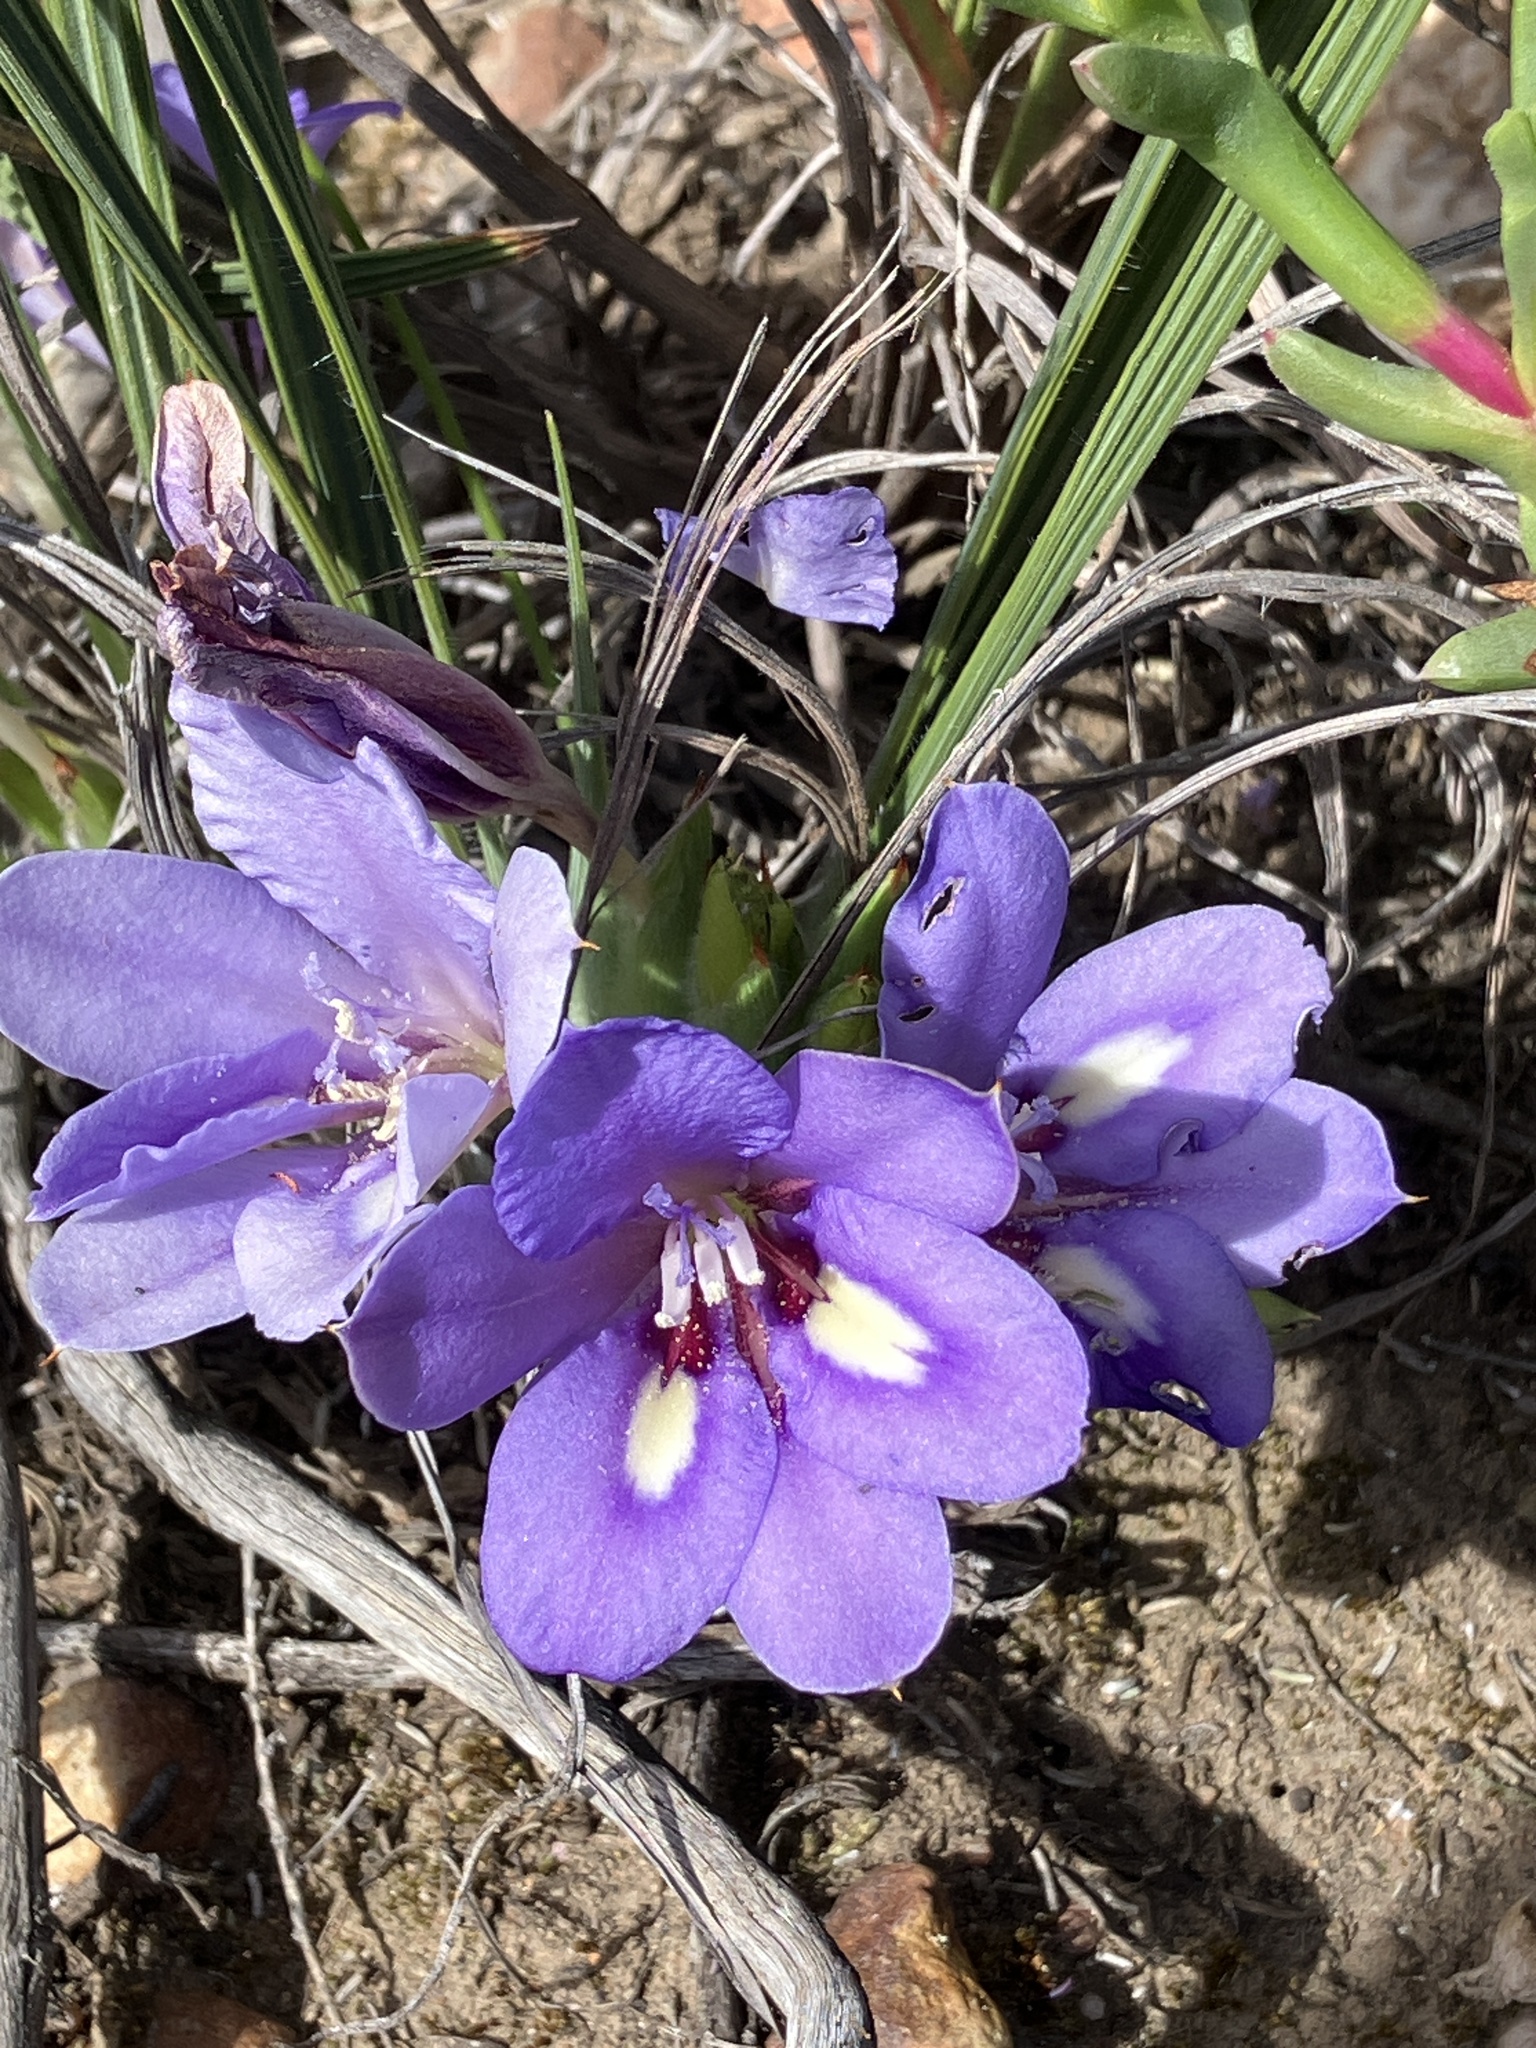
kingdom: Plantae
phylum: Tracheophyta
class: Liliopsida
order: Asparagales
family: Iridaceae
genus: Babiana
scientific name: Babiana sambucina
